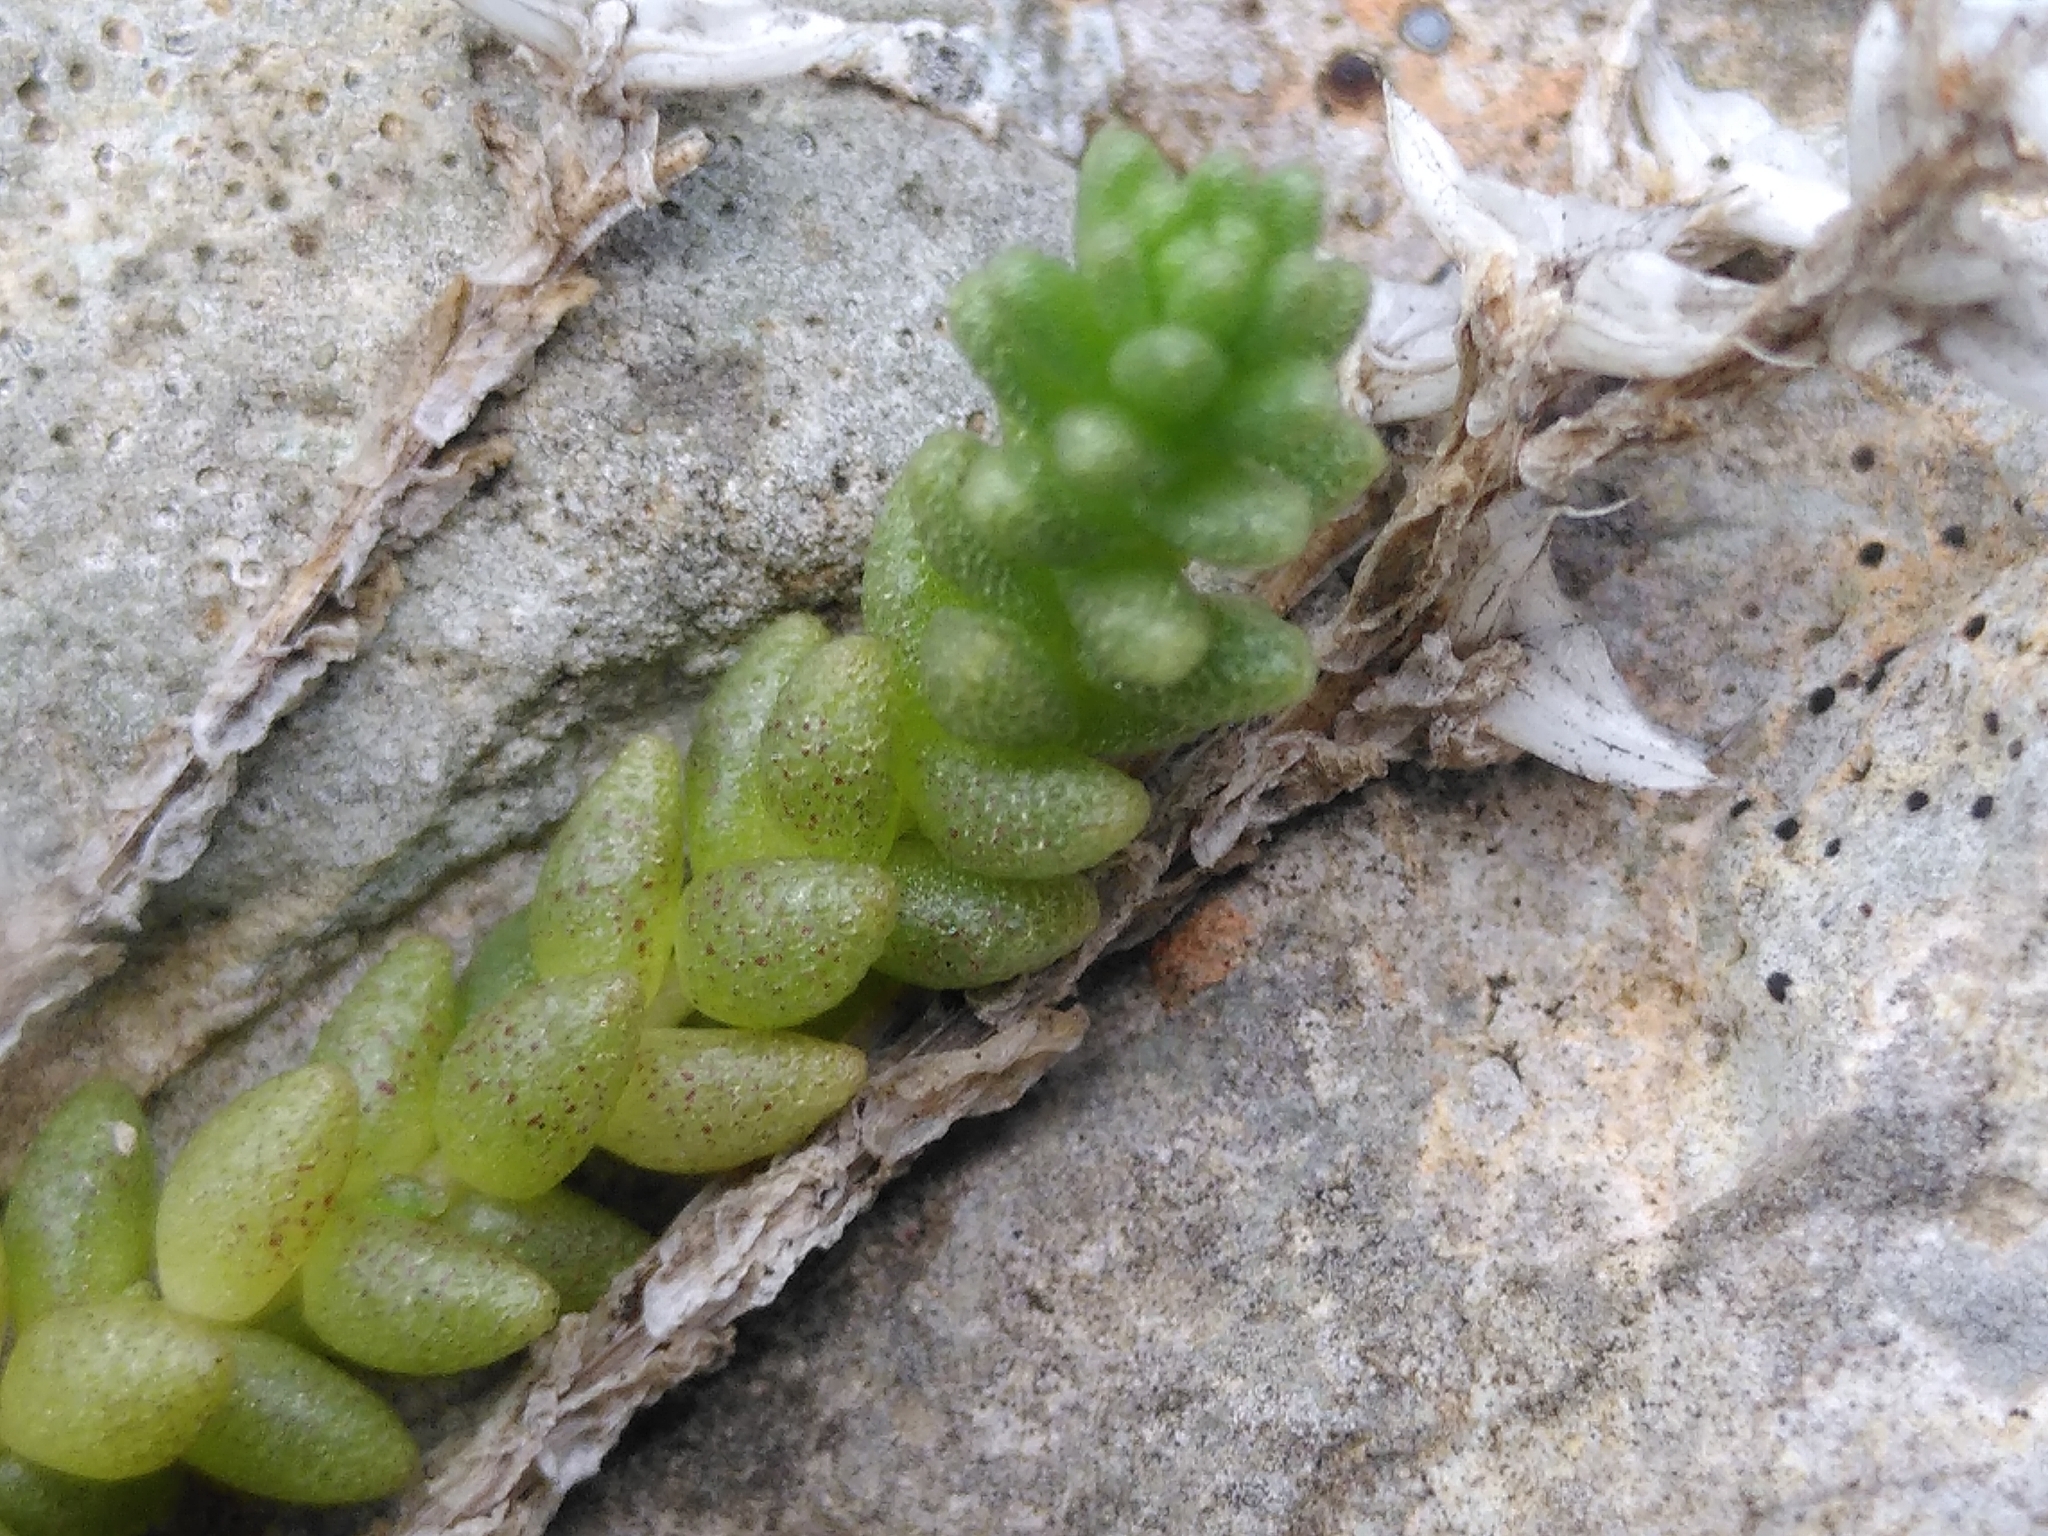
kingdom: Plantae
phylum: Tracheophyta
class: Magnoliopsida
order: Saxifragales
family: Crassulaceae
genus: Sedum
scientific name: Sedum acre
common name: Biting stonecrop
